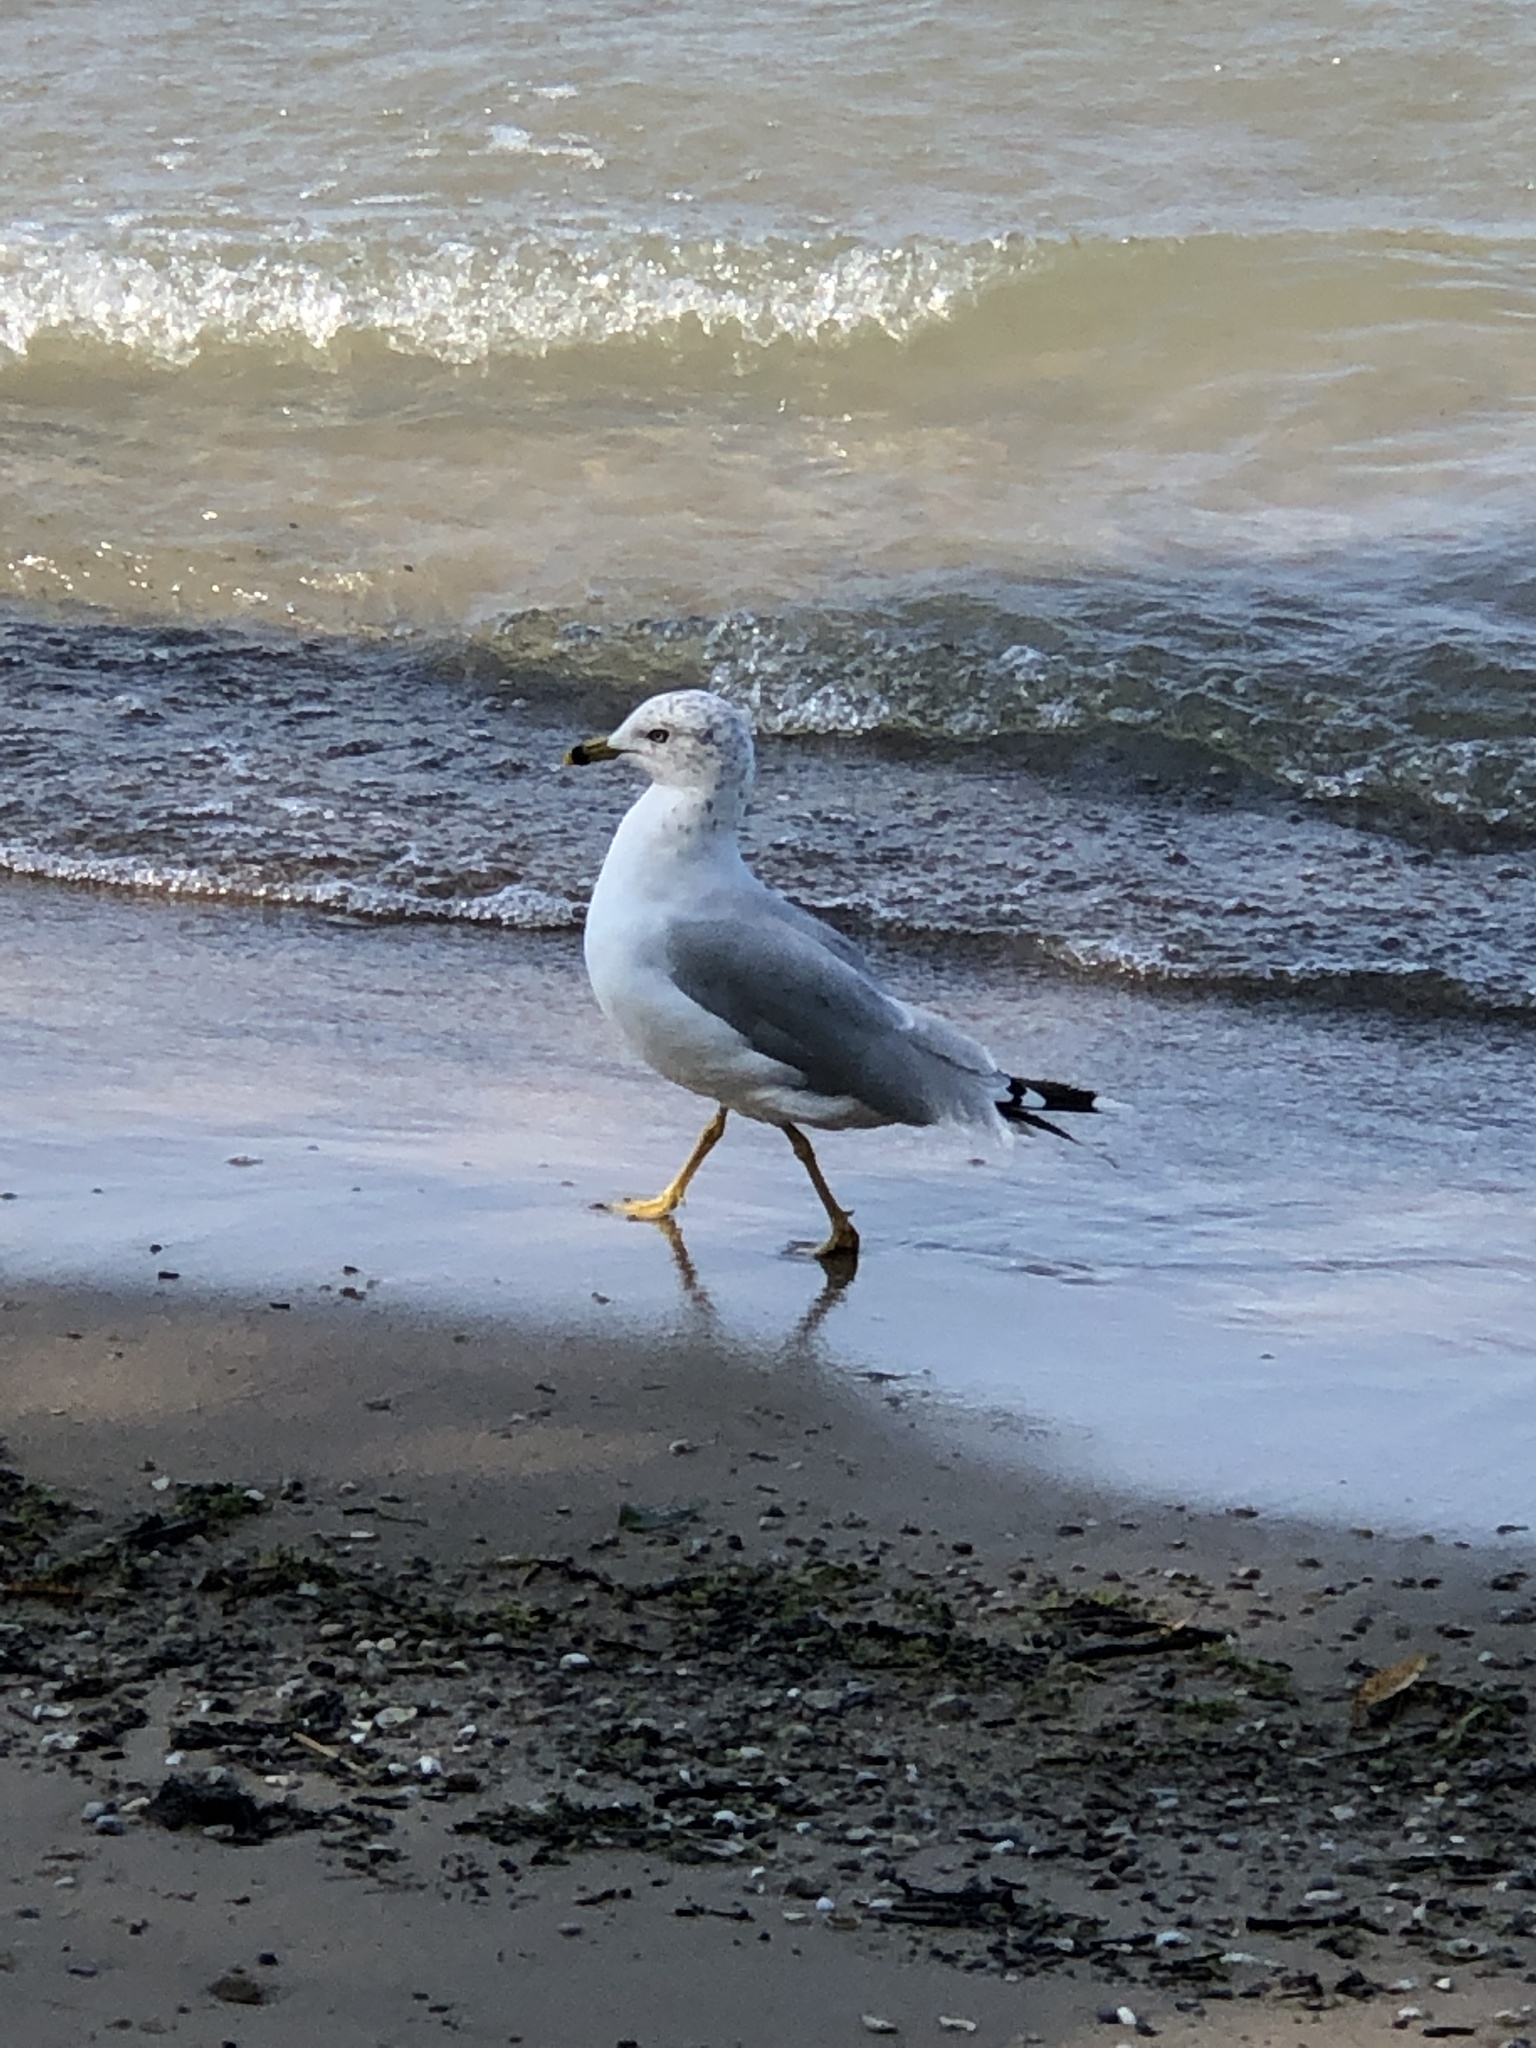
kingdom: Animalia
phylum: Chordata
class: Aves
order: Charadriiformes
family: Laridae
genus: Larus
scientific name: Larus delawarensis
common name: Ring-billed gull
